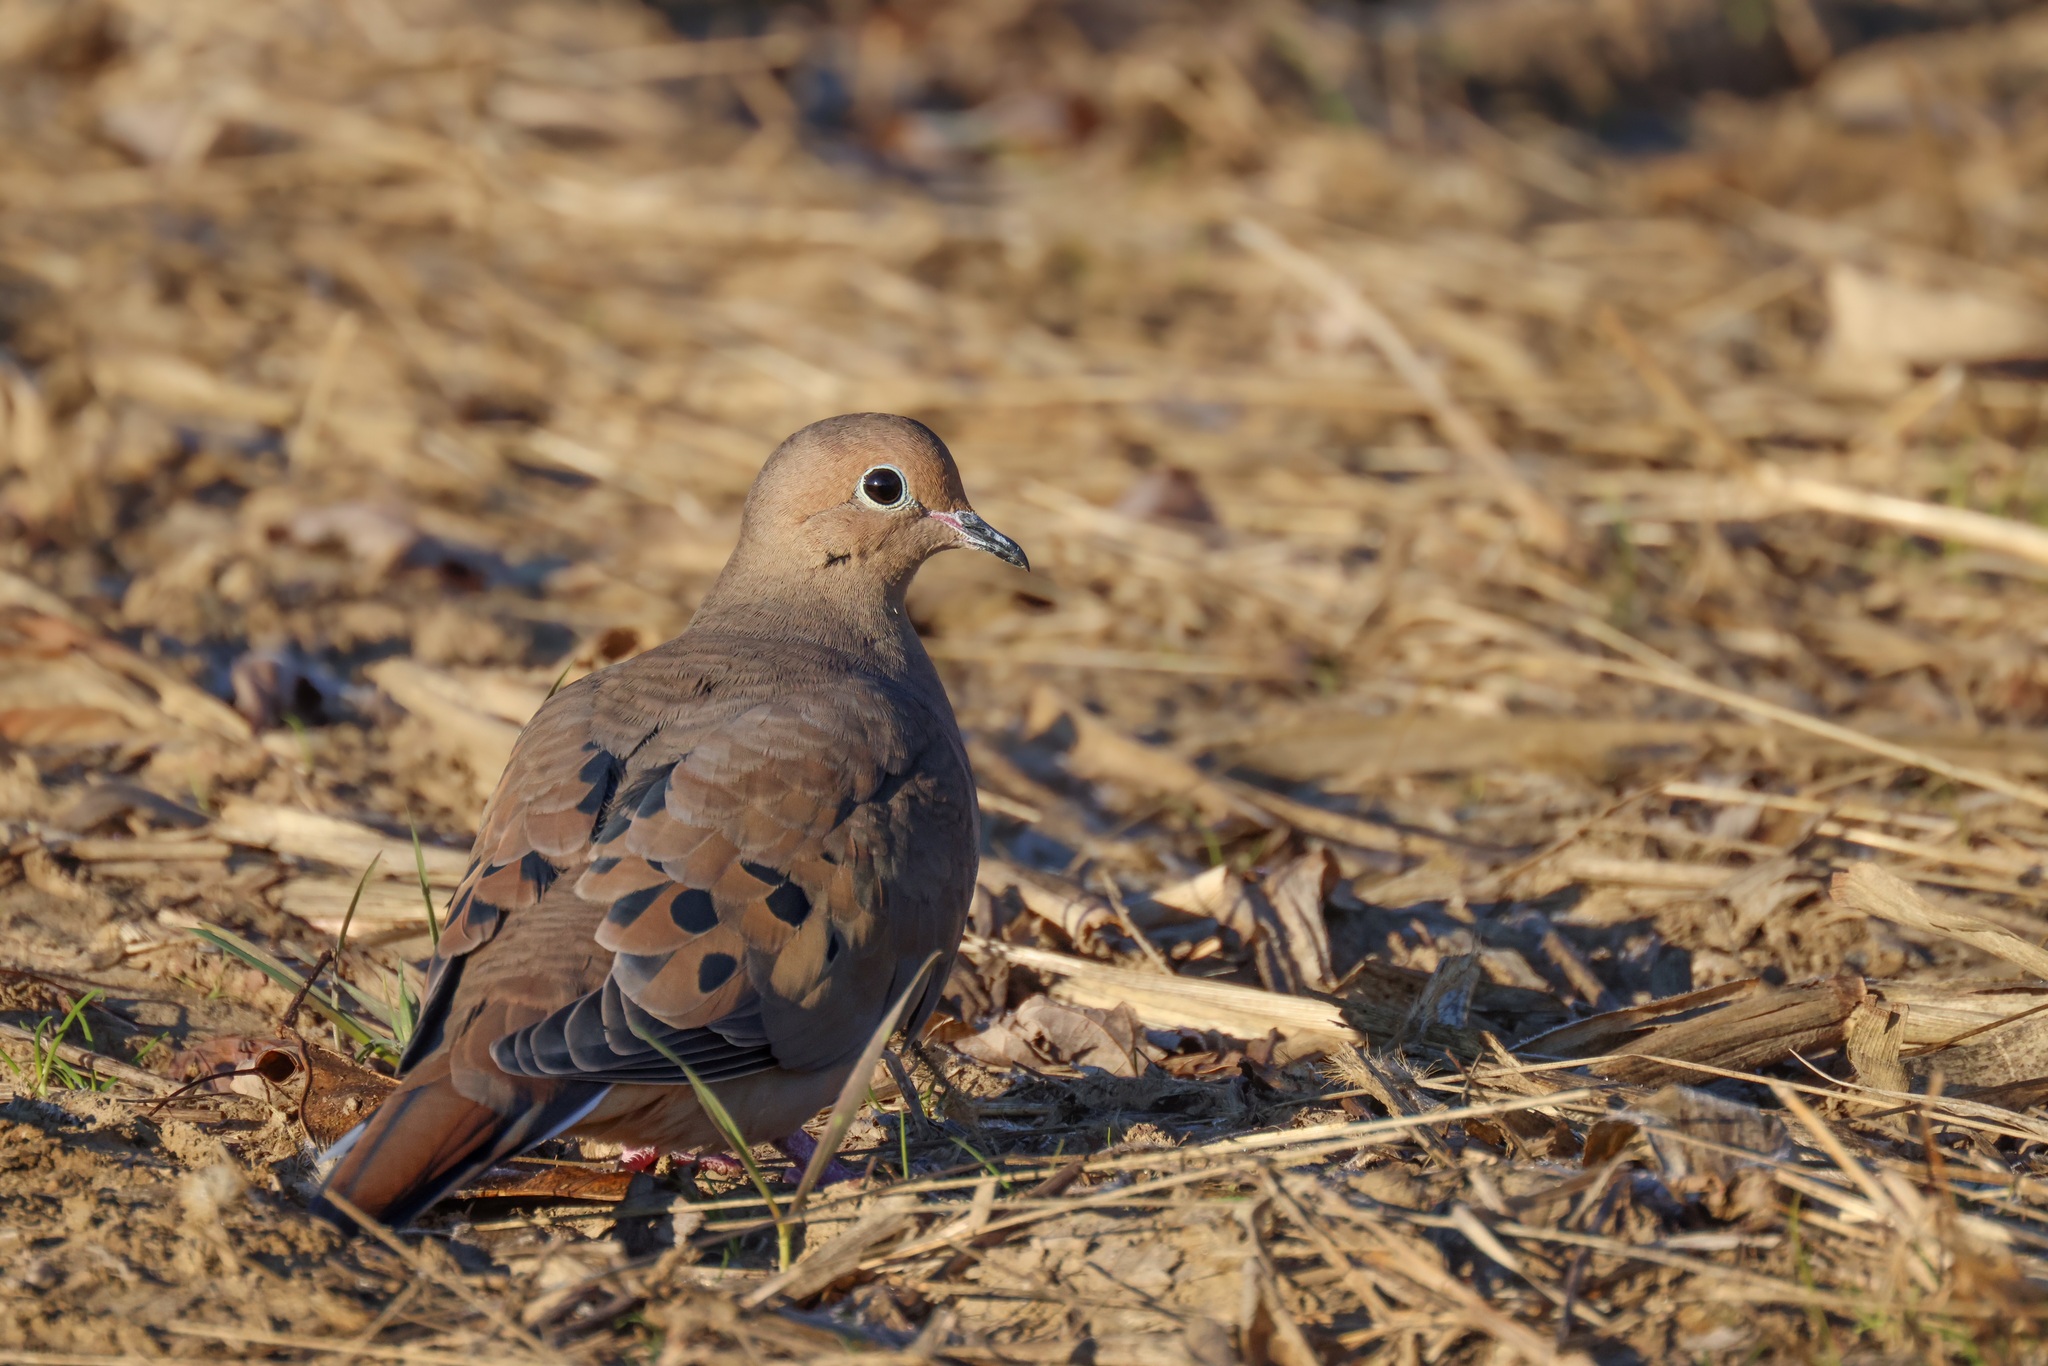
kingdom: Animalia
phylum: Chordata
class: Aves
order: Columbiformes
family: Columbidae
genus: Zenaida
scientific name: Zenaida macroura
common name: Mourning dove
